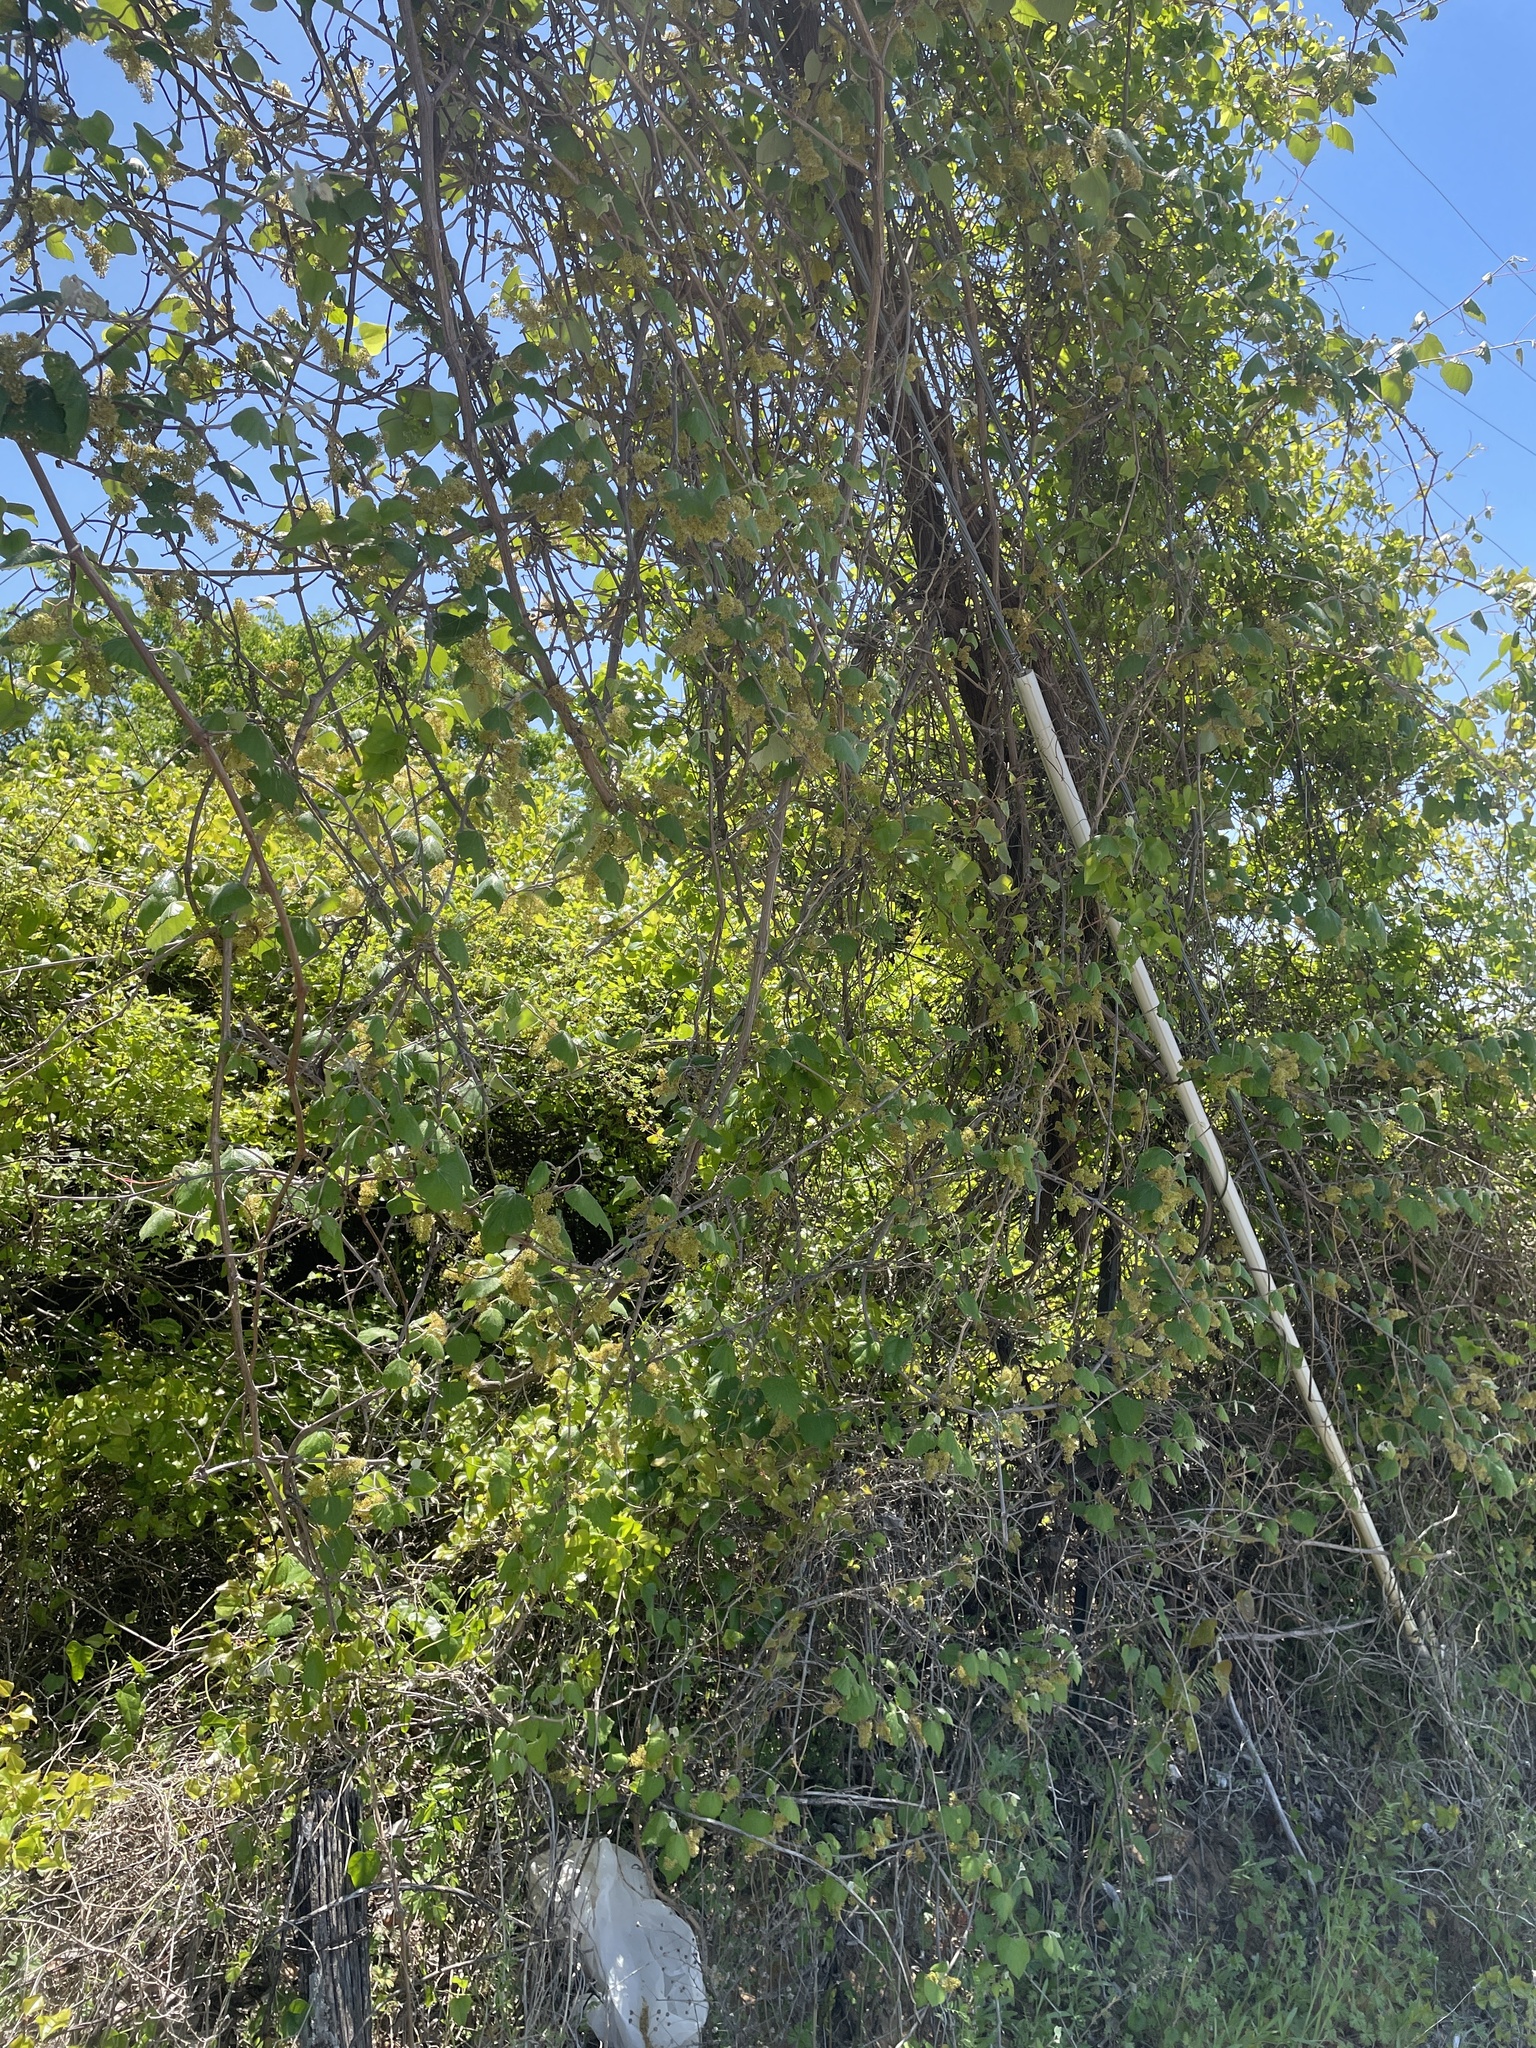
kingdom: Plantae
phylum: Tracheophyta
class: Magnoliopsida
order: Vitales
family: Vitaceae
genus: Vitis
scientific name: Vitis mustangensis
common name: Mustang grape
